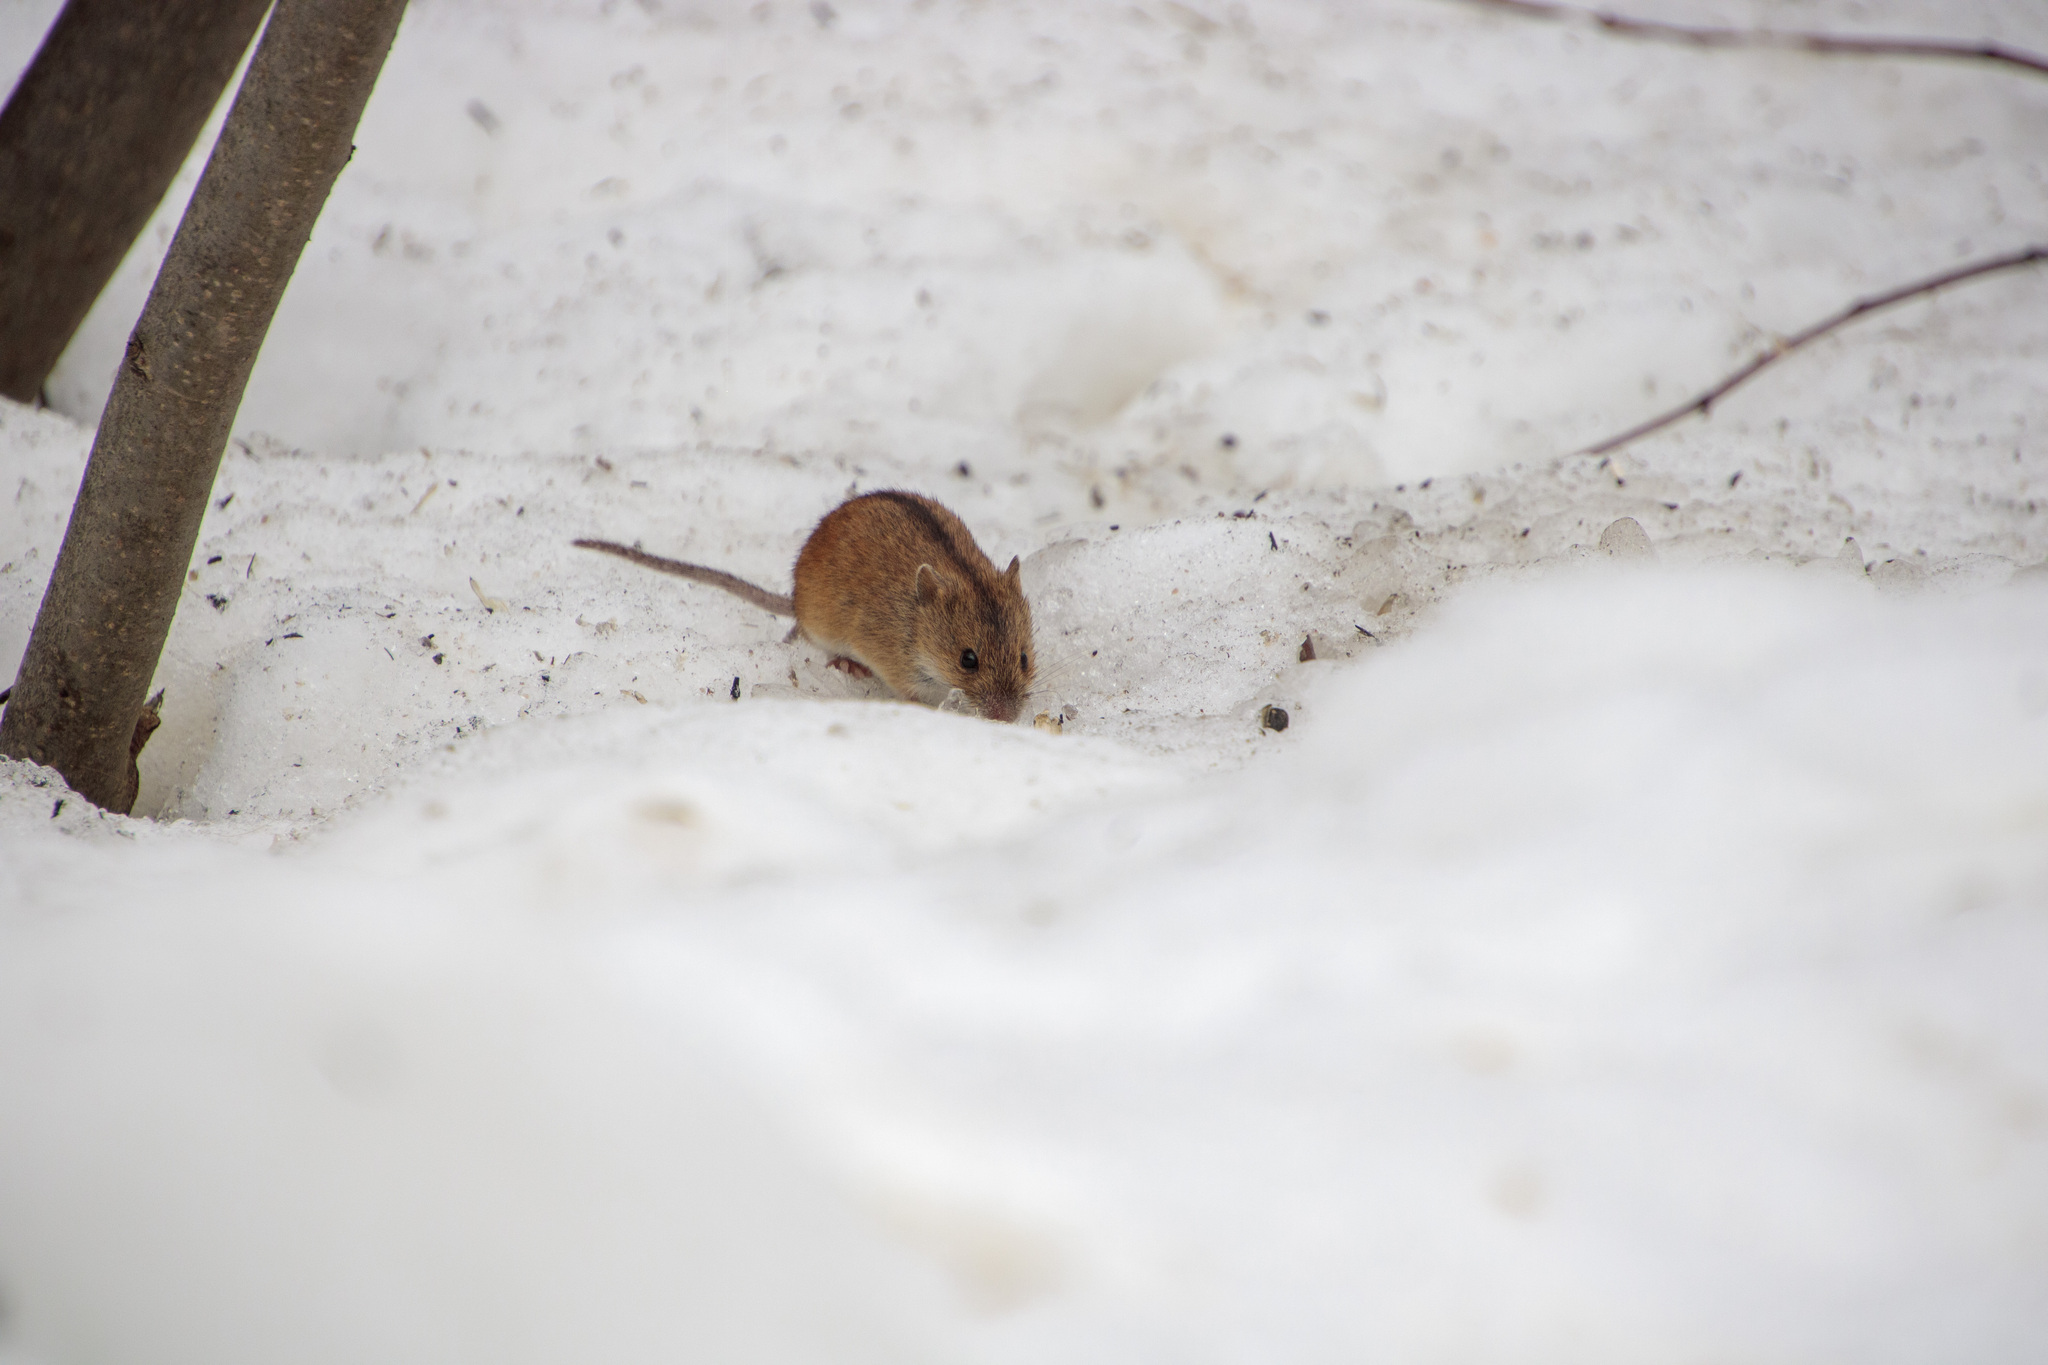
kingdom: Animalia
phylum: Chordata
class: Mammalia
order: Rodentia
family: Muridae
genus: Apodemus
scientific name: Apodemus agrarius
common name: Striped field mouse
